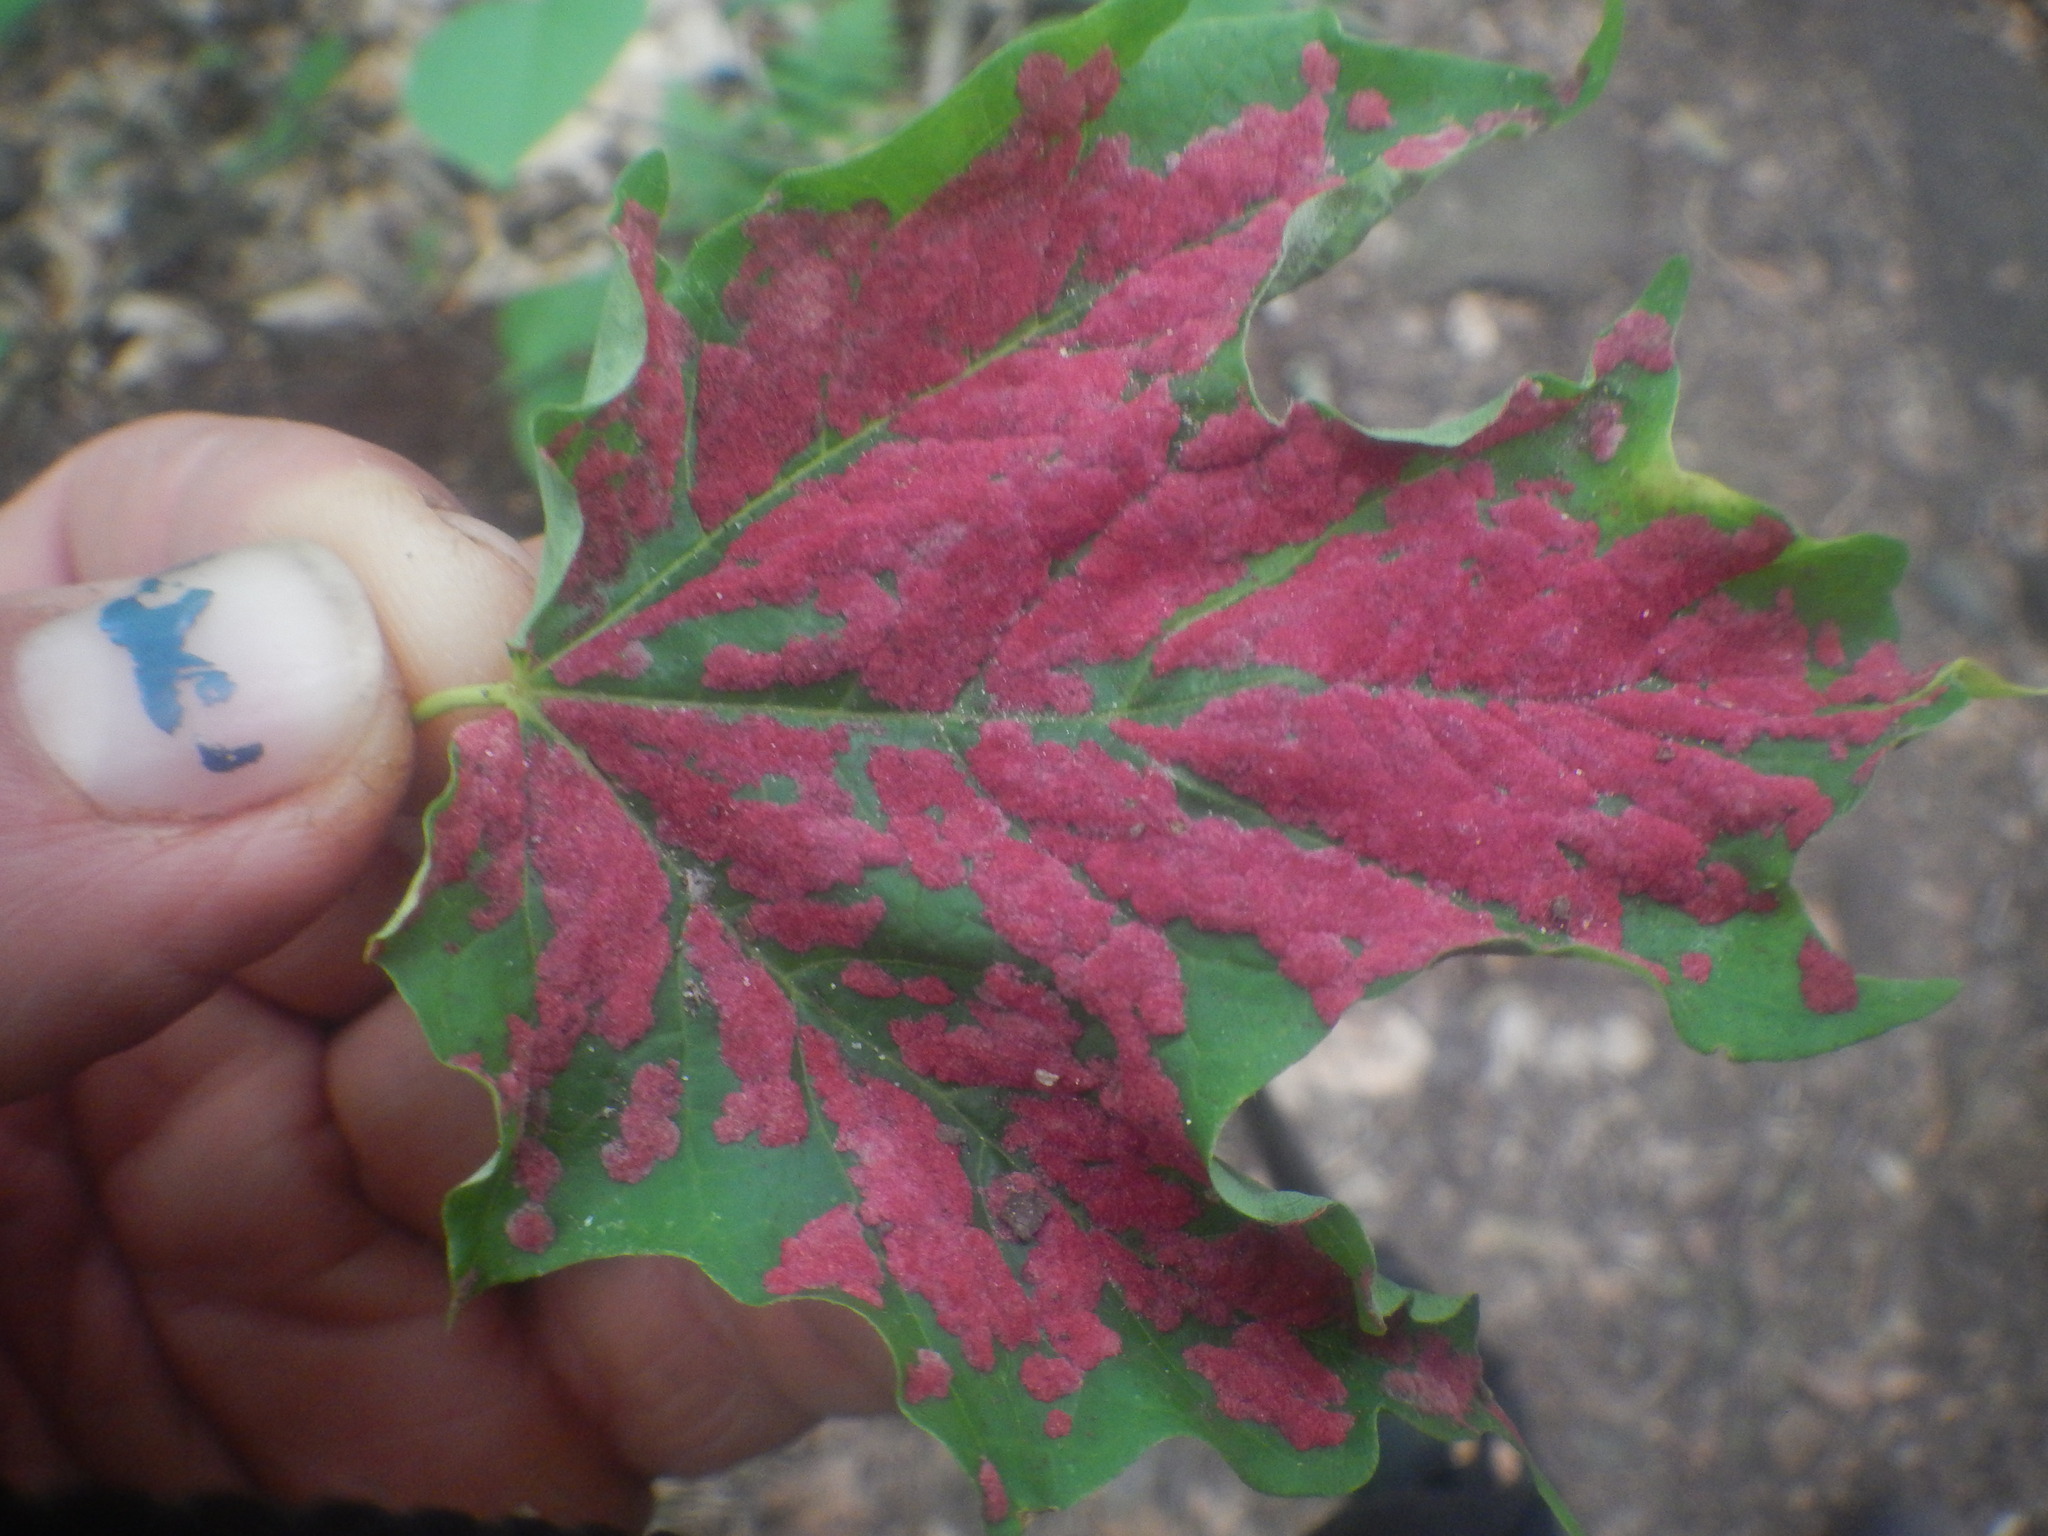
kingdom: Animalia
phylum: Arthropoda
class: Arachnida
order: Trombidiformes
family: Eriophyidae
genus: Aceria
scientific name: Aceria
